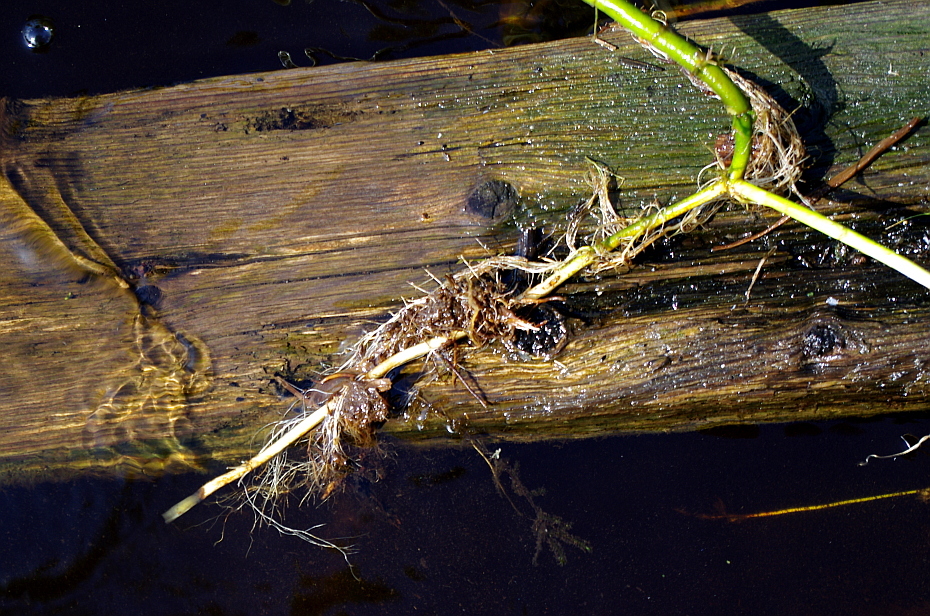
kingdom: Plantae
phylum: Tracheophyta
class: Magnoliopsida
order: Ericales
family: Primulaceae
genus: Lysimachia
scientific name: Lysimachia thyrsiflora
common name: Tufted loosestrife
